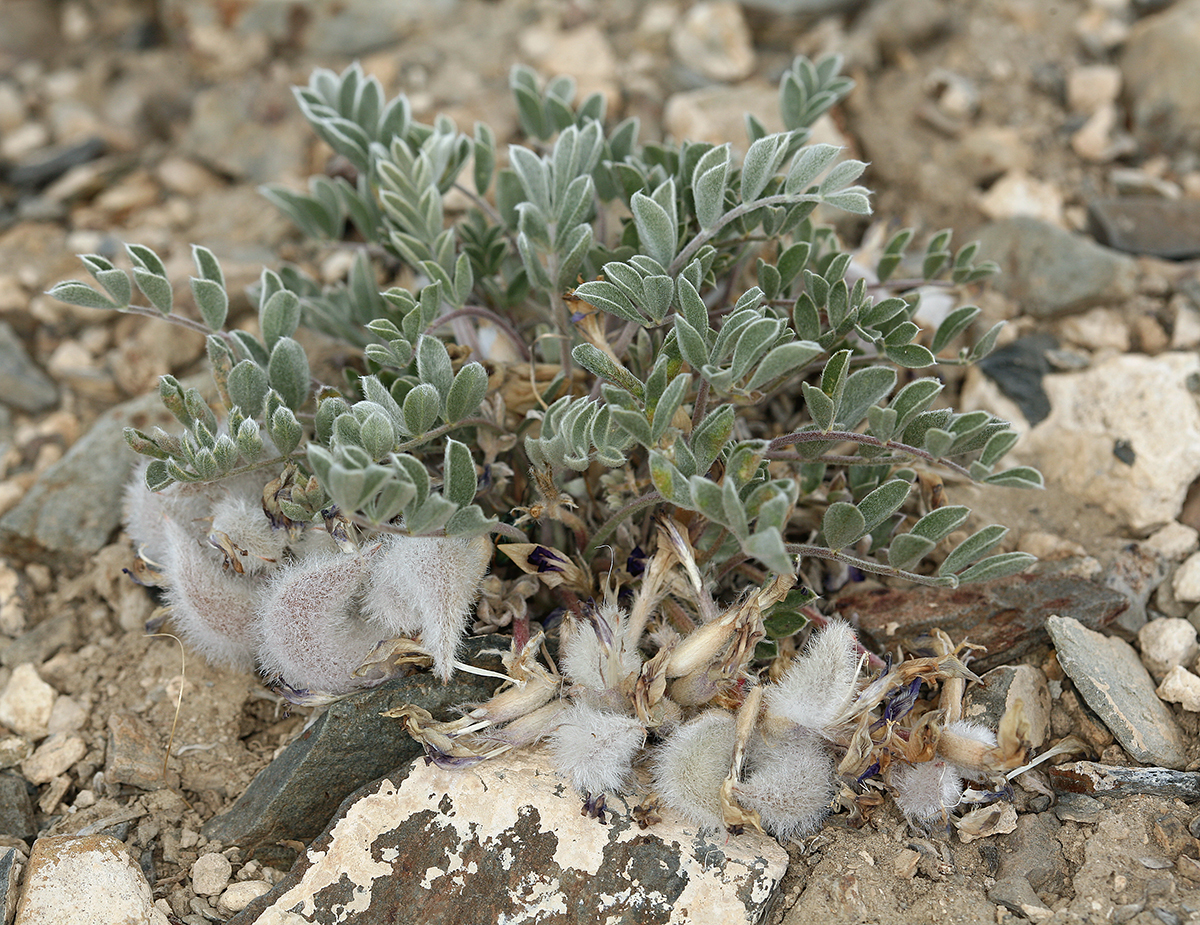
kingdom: Plantae
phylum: Tracheophyta
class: Magnoliopsida
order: Fabales
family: Fabaceae
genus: Astragalus
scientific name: Astragalus newberryi
